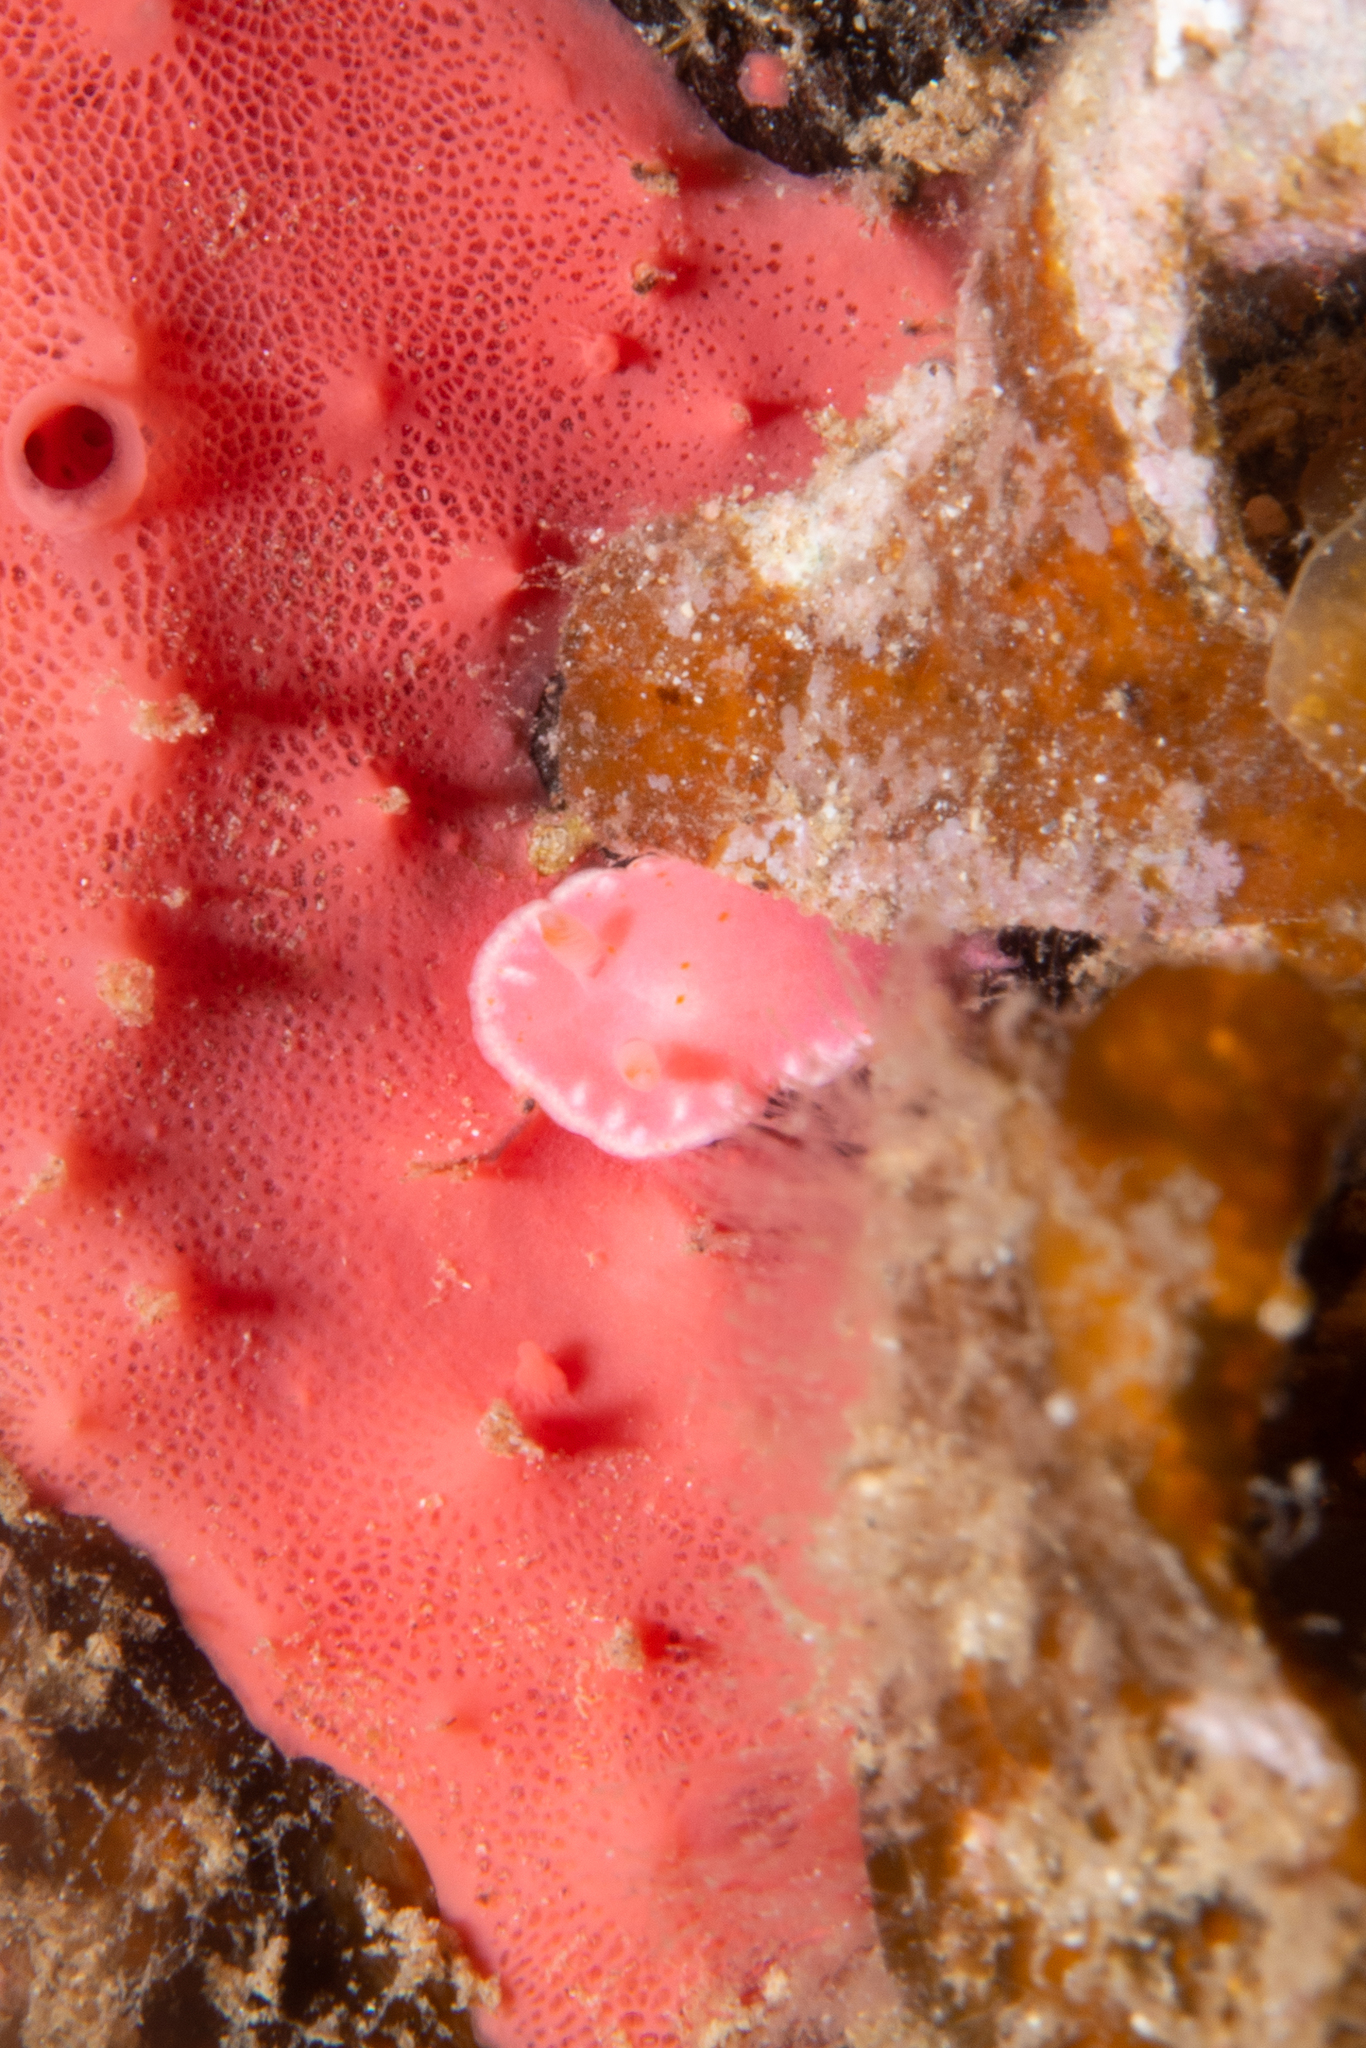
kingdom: Animalia
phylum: Mollusca
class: Gastropoda
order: Nudibranchia
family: Chromodorididae
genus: Verconia
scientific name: Verconia haliclona
